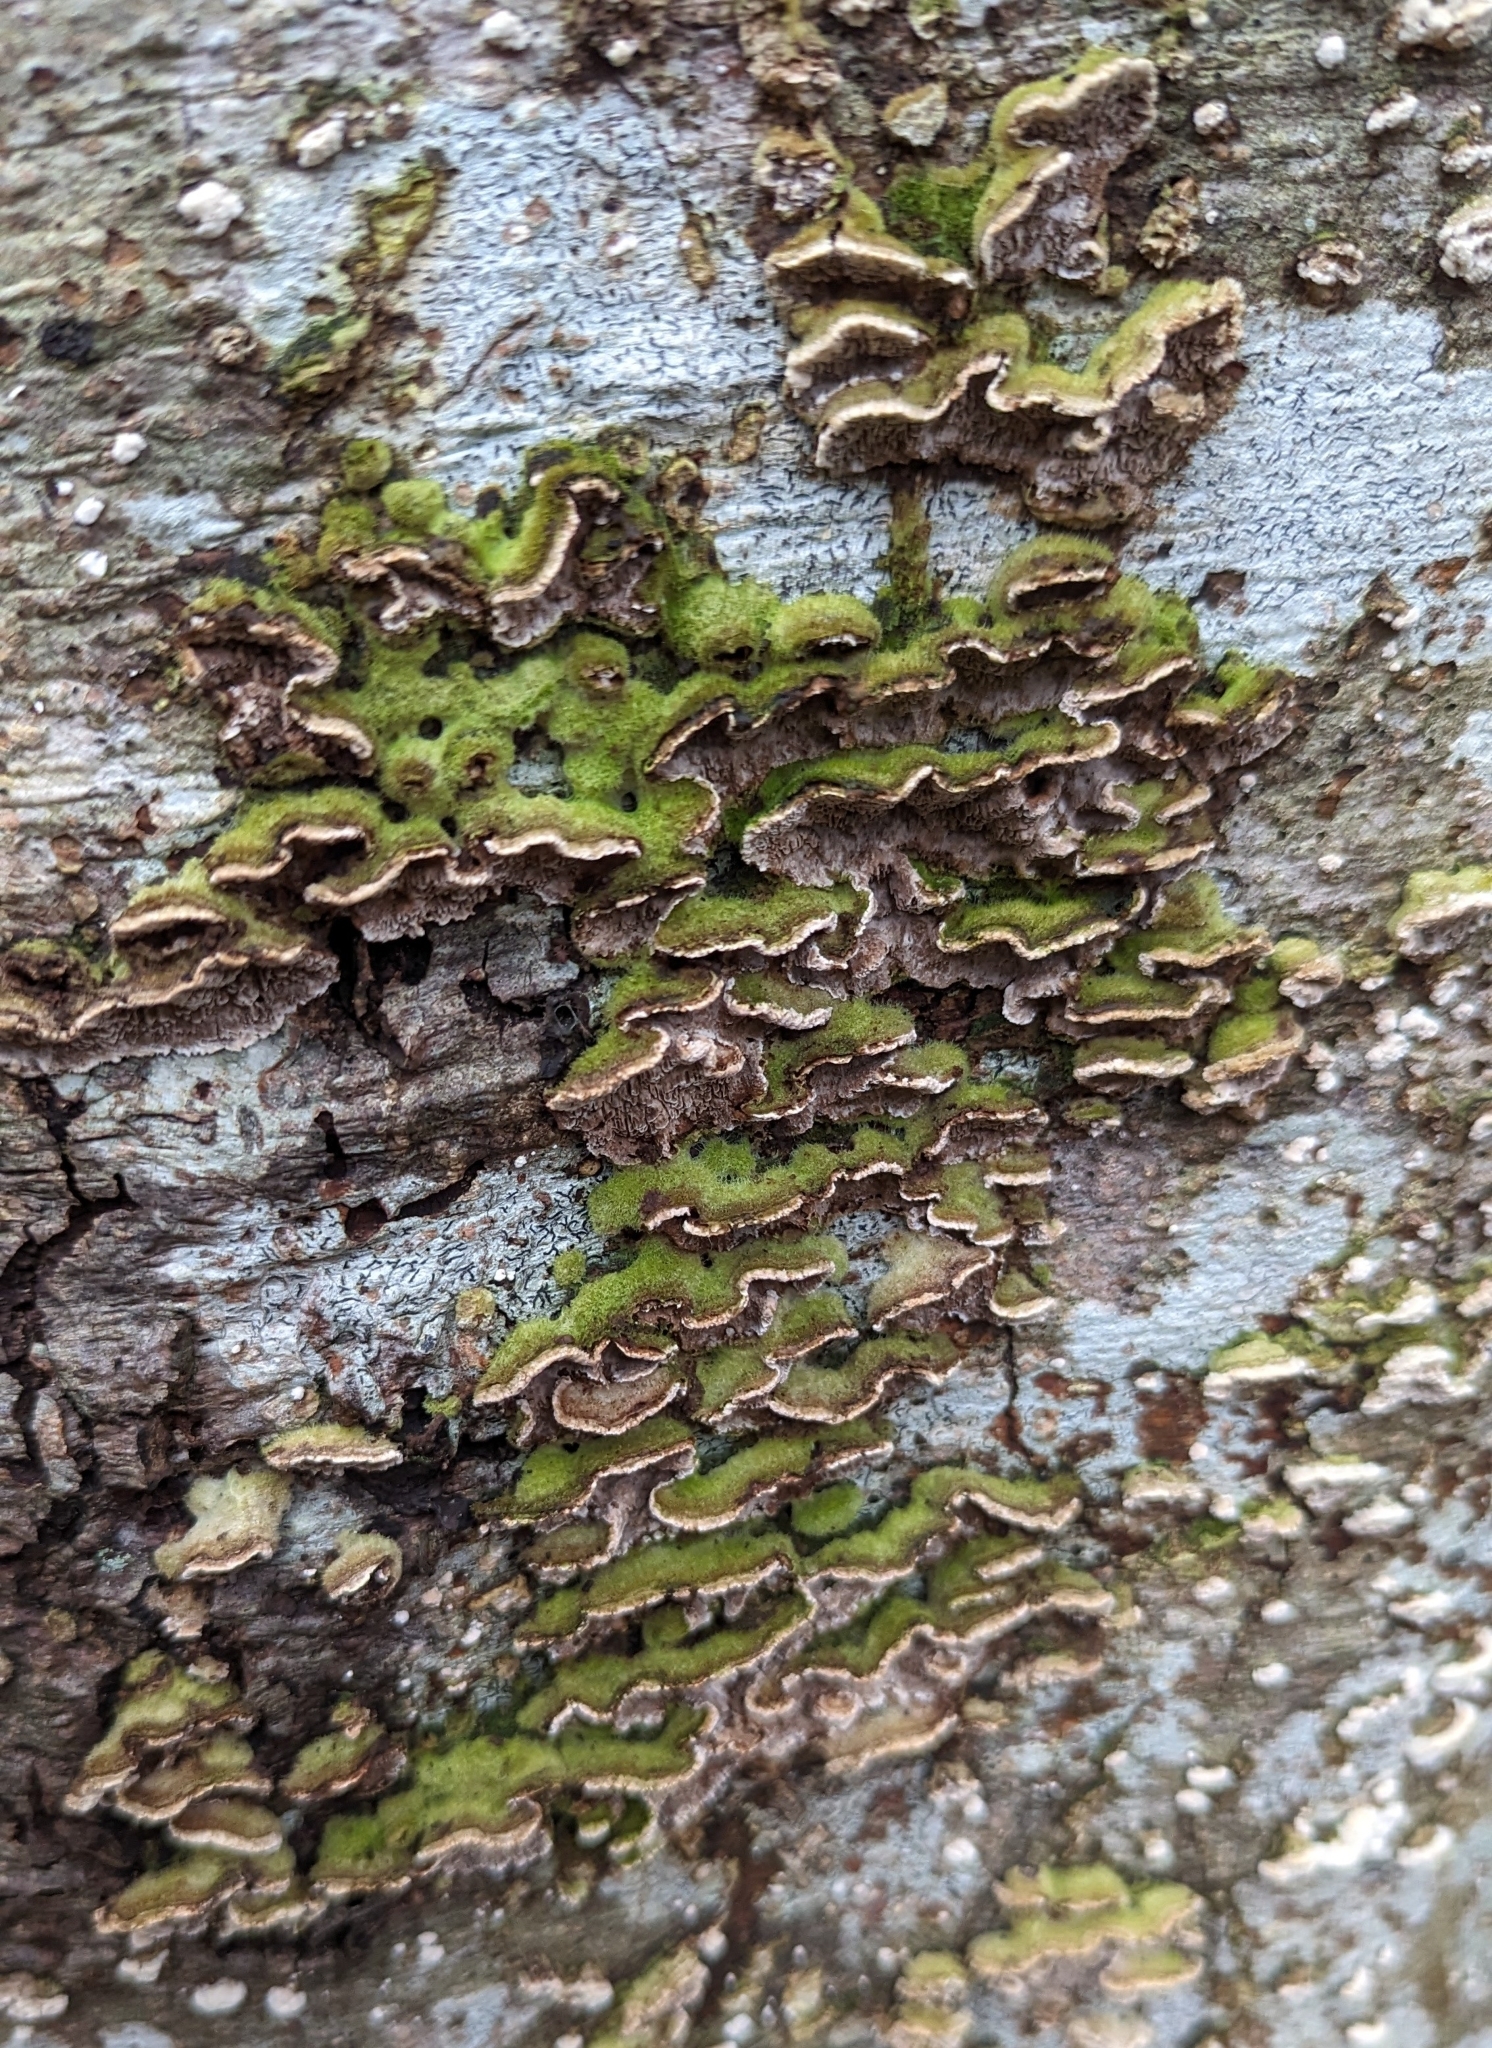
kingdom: Fungi
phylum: Basidiomycota
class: Agaricomycetes
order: Polyporales
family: Cerrenaceae
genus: Cerrena
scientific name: Cerrena unicolor
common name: Mossy maze polypore
